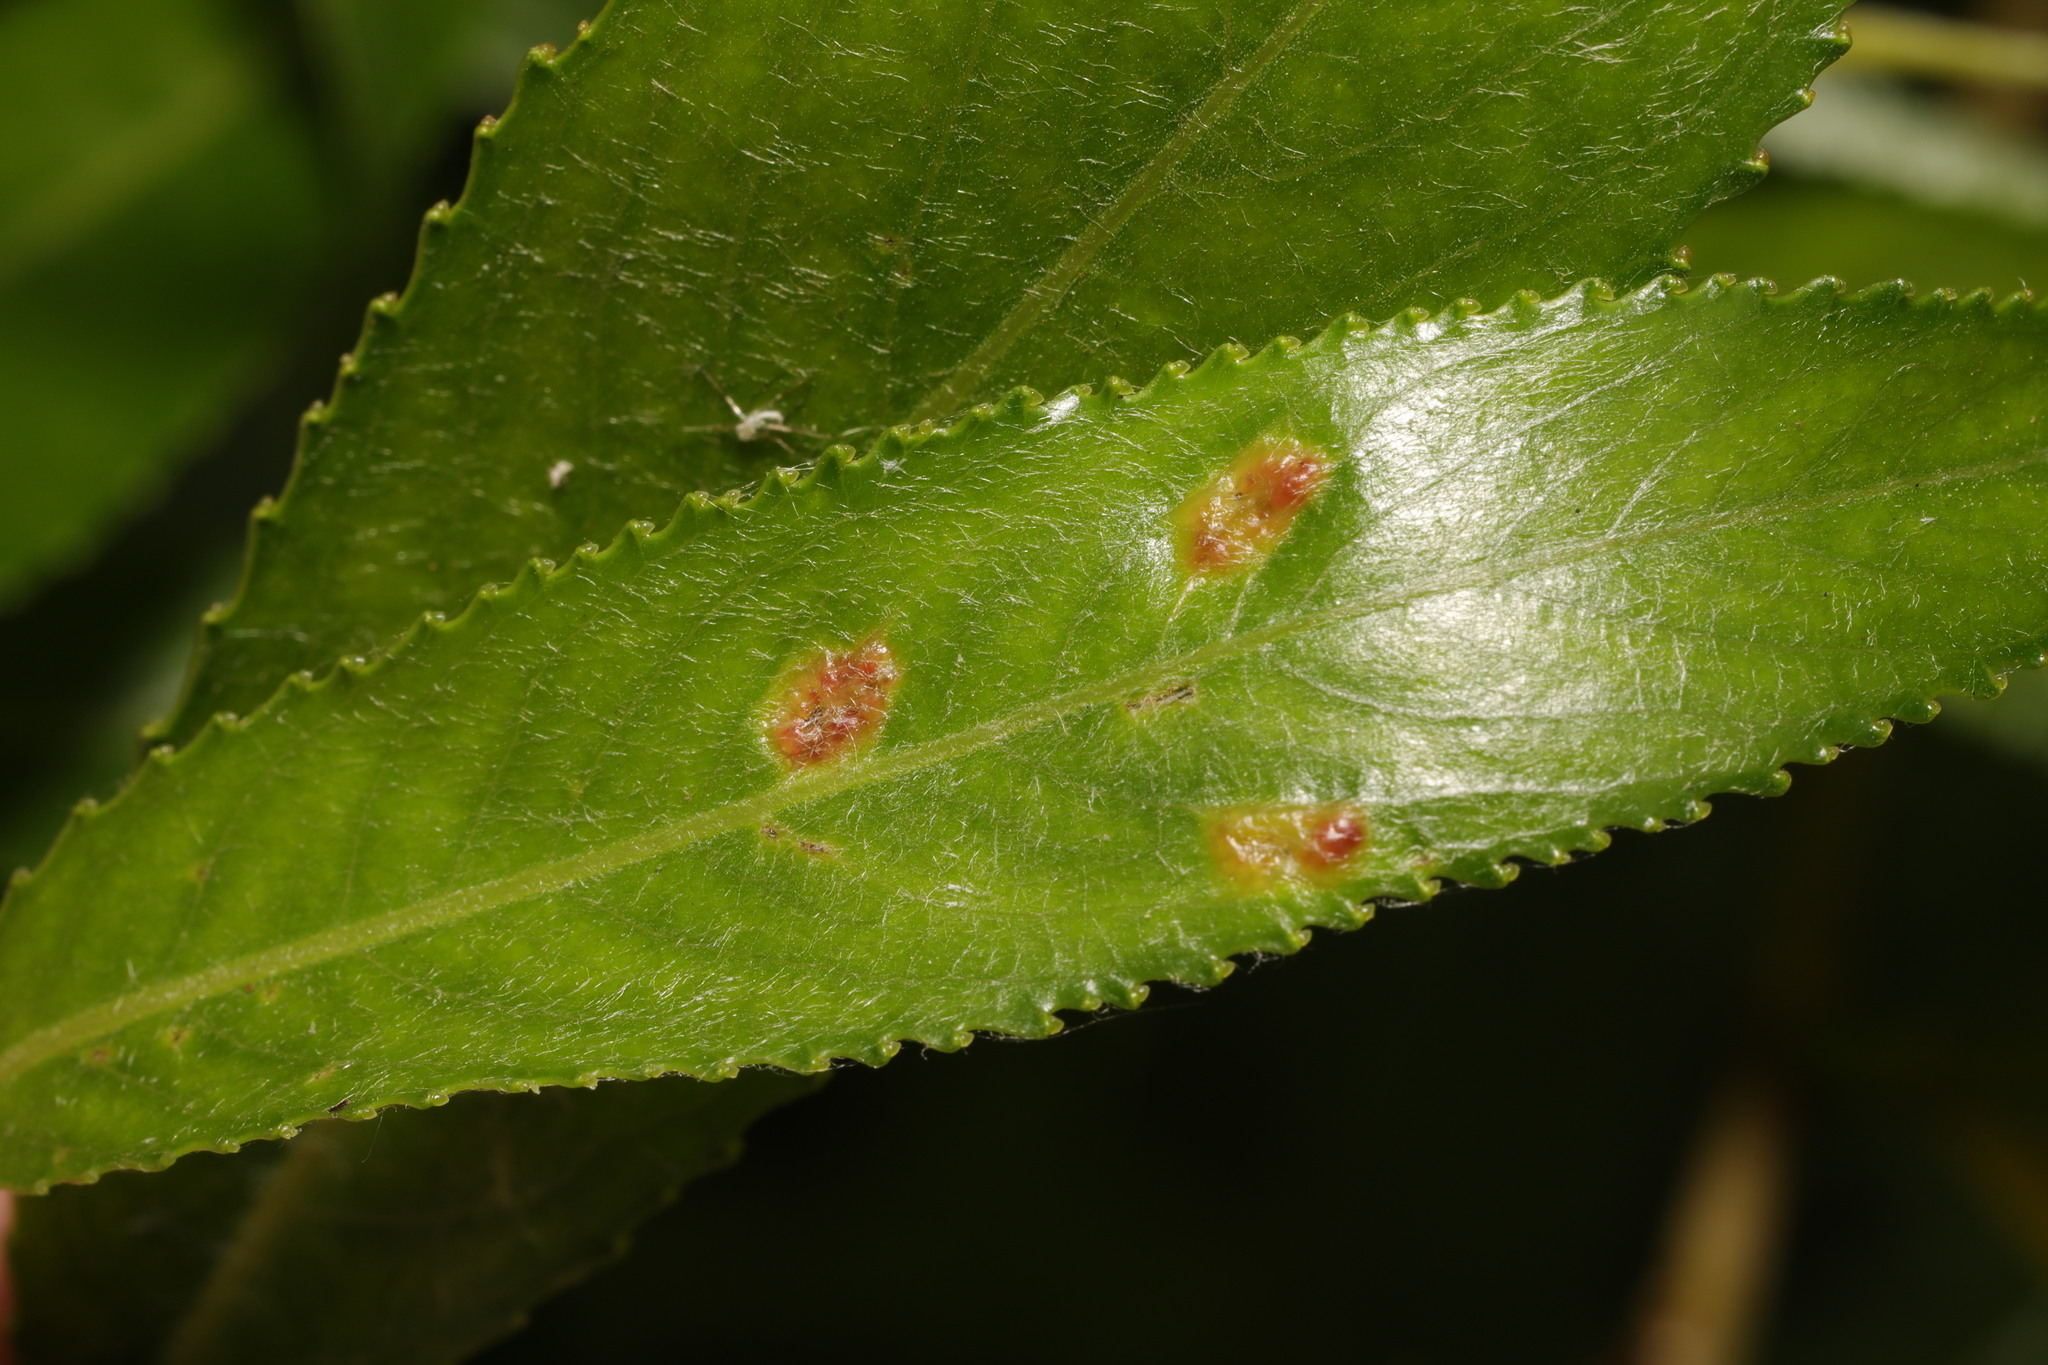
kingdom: Animalia
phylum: Arthropoda
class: Insecta
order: Hymenoptera
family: Tenthredinidae
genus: Pontania
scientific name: Pontania proxima
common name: Common sawfly
